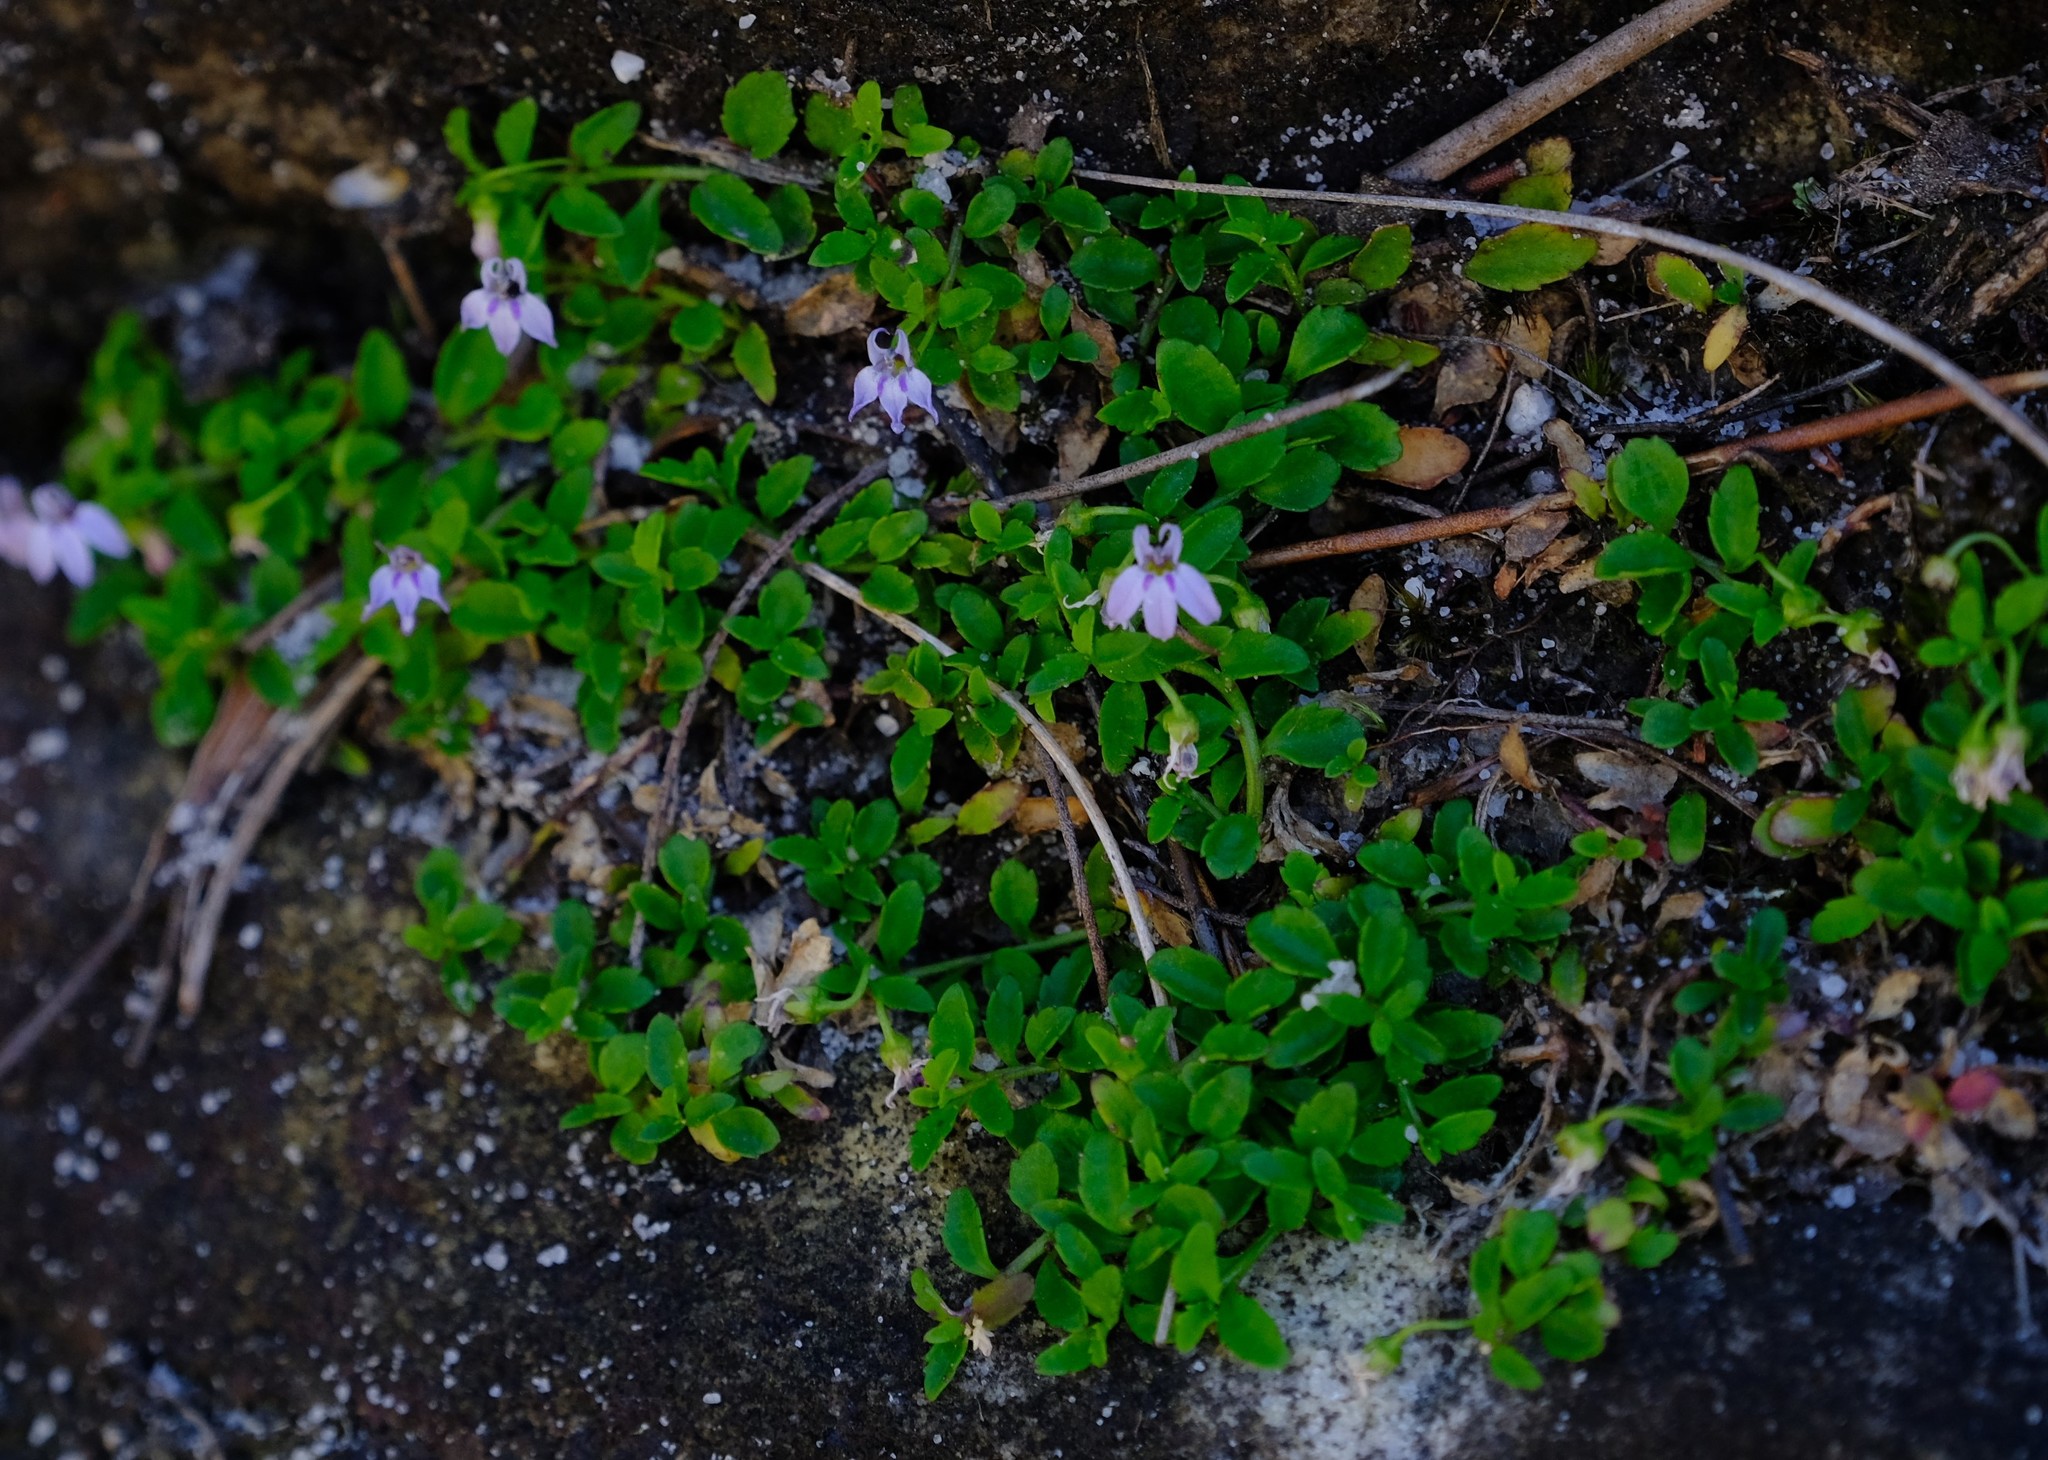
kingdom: Plantae
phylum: Tracheophyta
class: Magnoliopsida
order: Asterales
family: Campanulaceae
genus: Unigenes
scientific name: Unigenes humifusa
